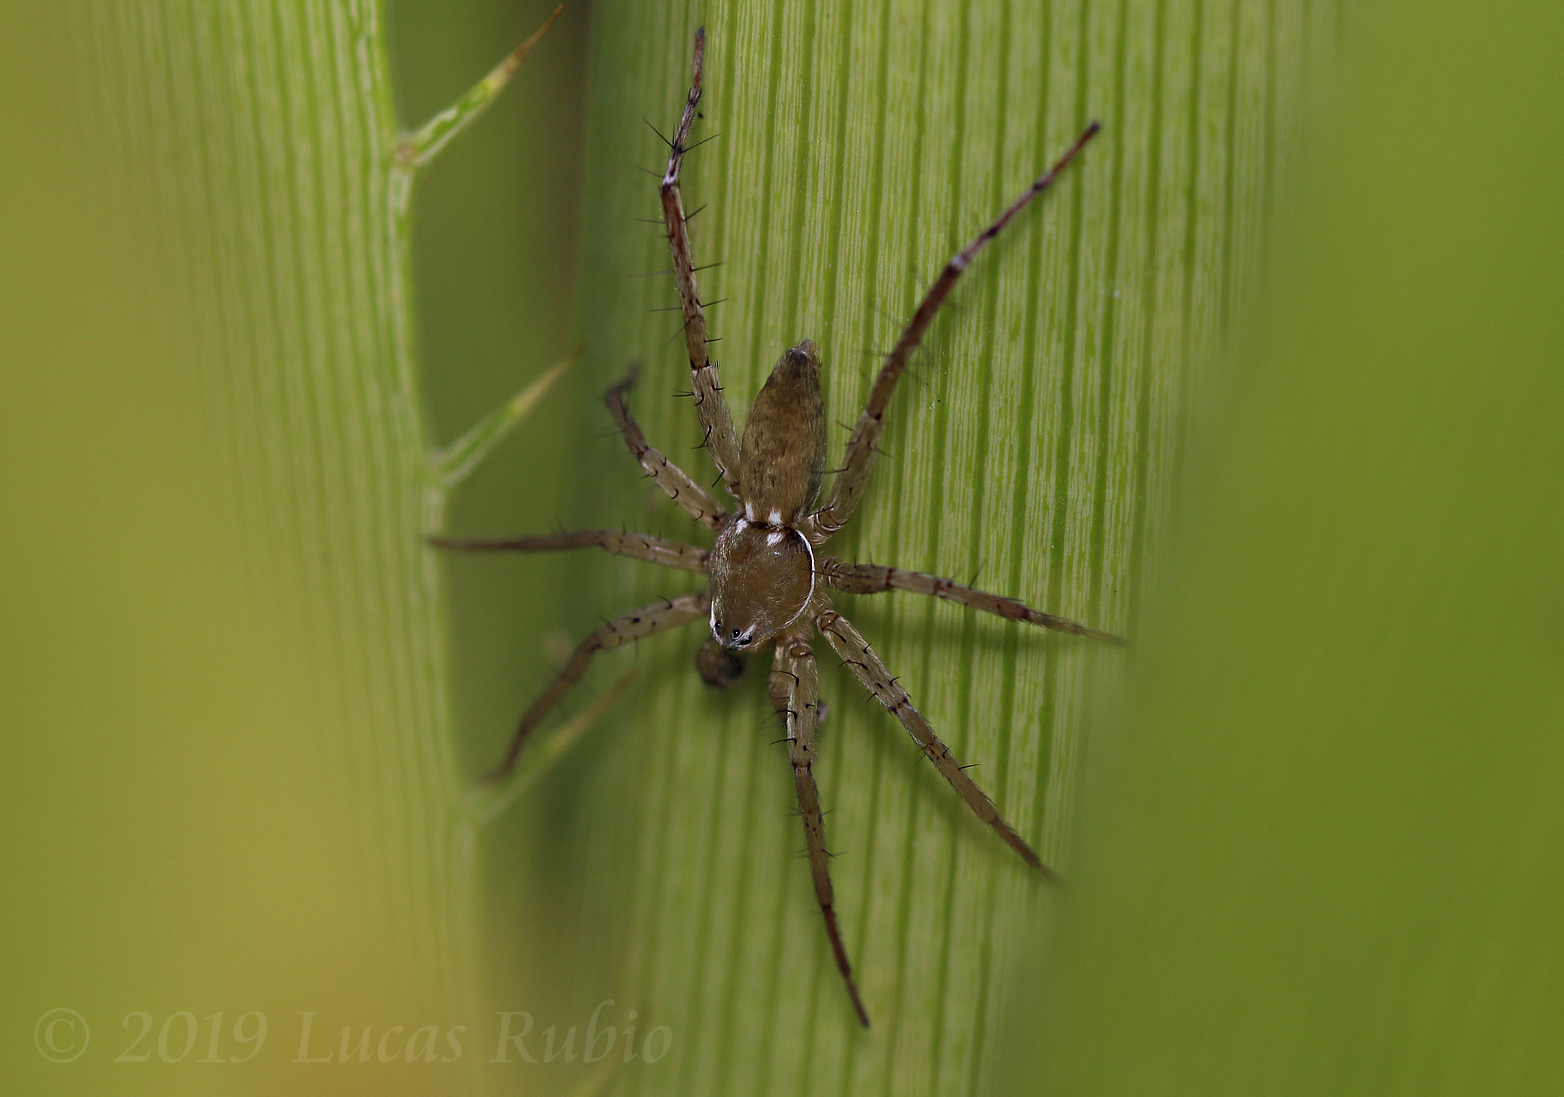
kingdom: Animalia
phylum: Arthropoda
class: Arachnida
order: Araneae
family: Anyphaenidae
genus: Arachosia
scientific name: Arachosia proseni
